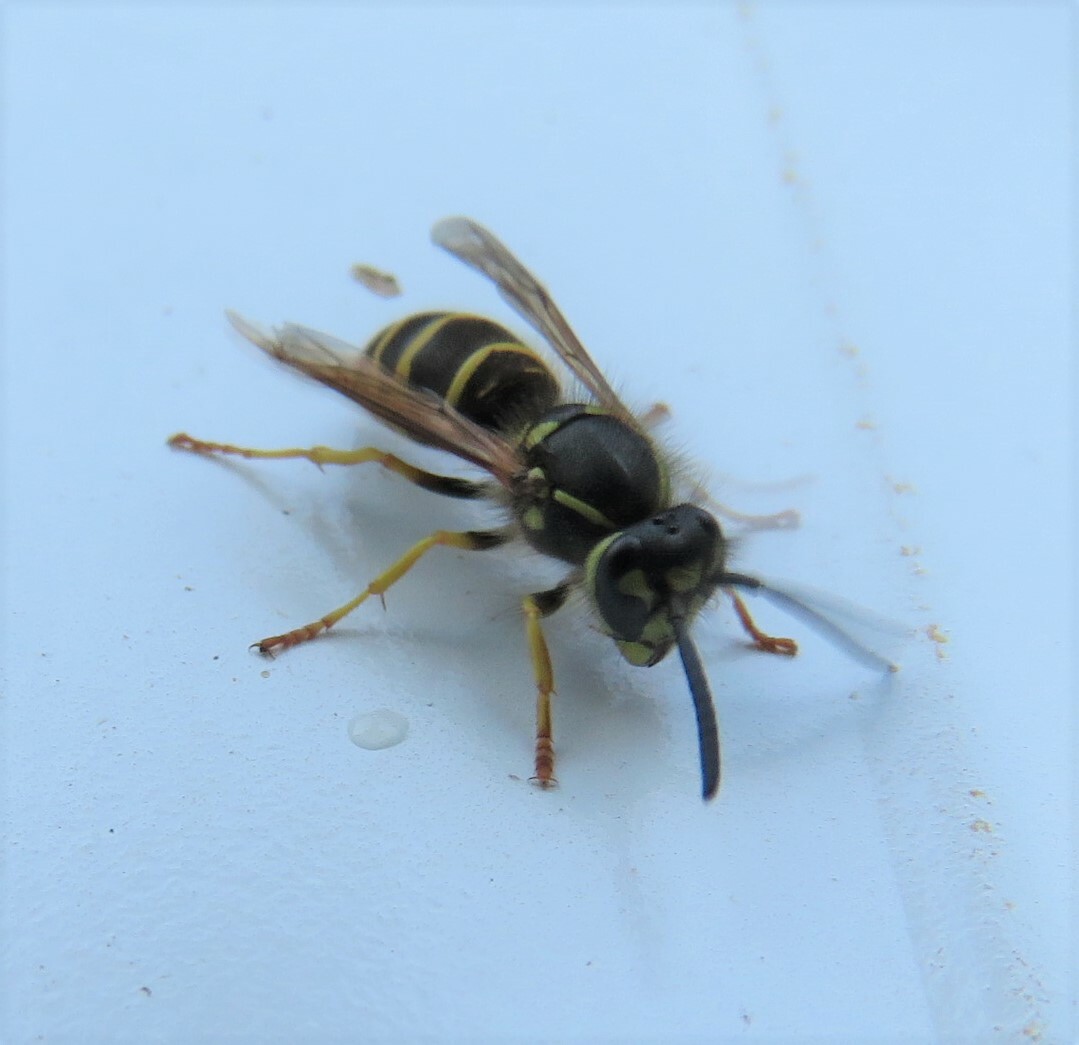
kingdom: Animalia
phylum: Arthropoda
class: Insecta
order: Hymenoptera
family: Vespidae
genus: Vespula
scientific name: Vespula maculifrons
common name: Eastern yellowjacket
